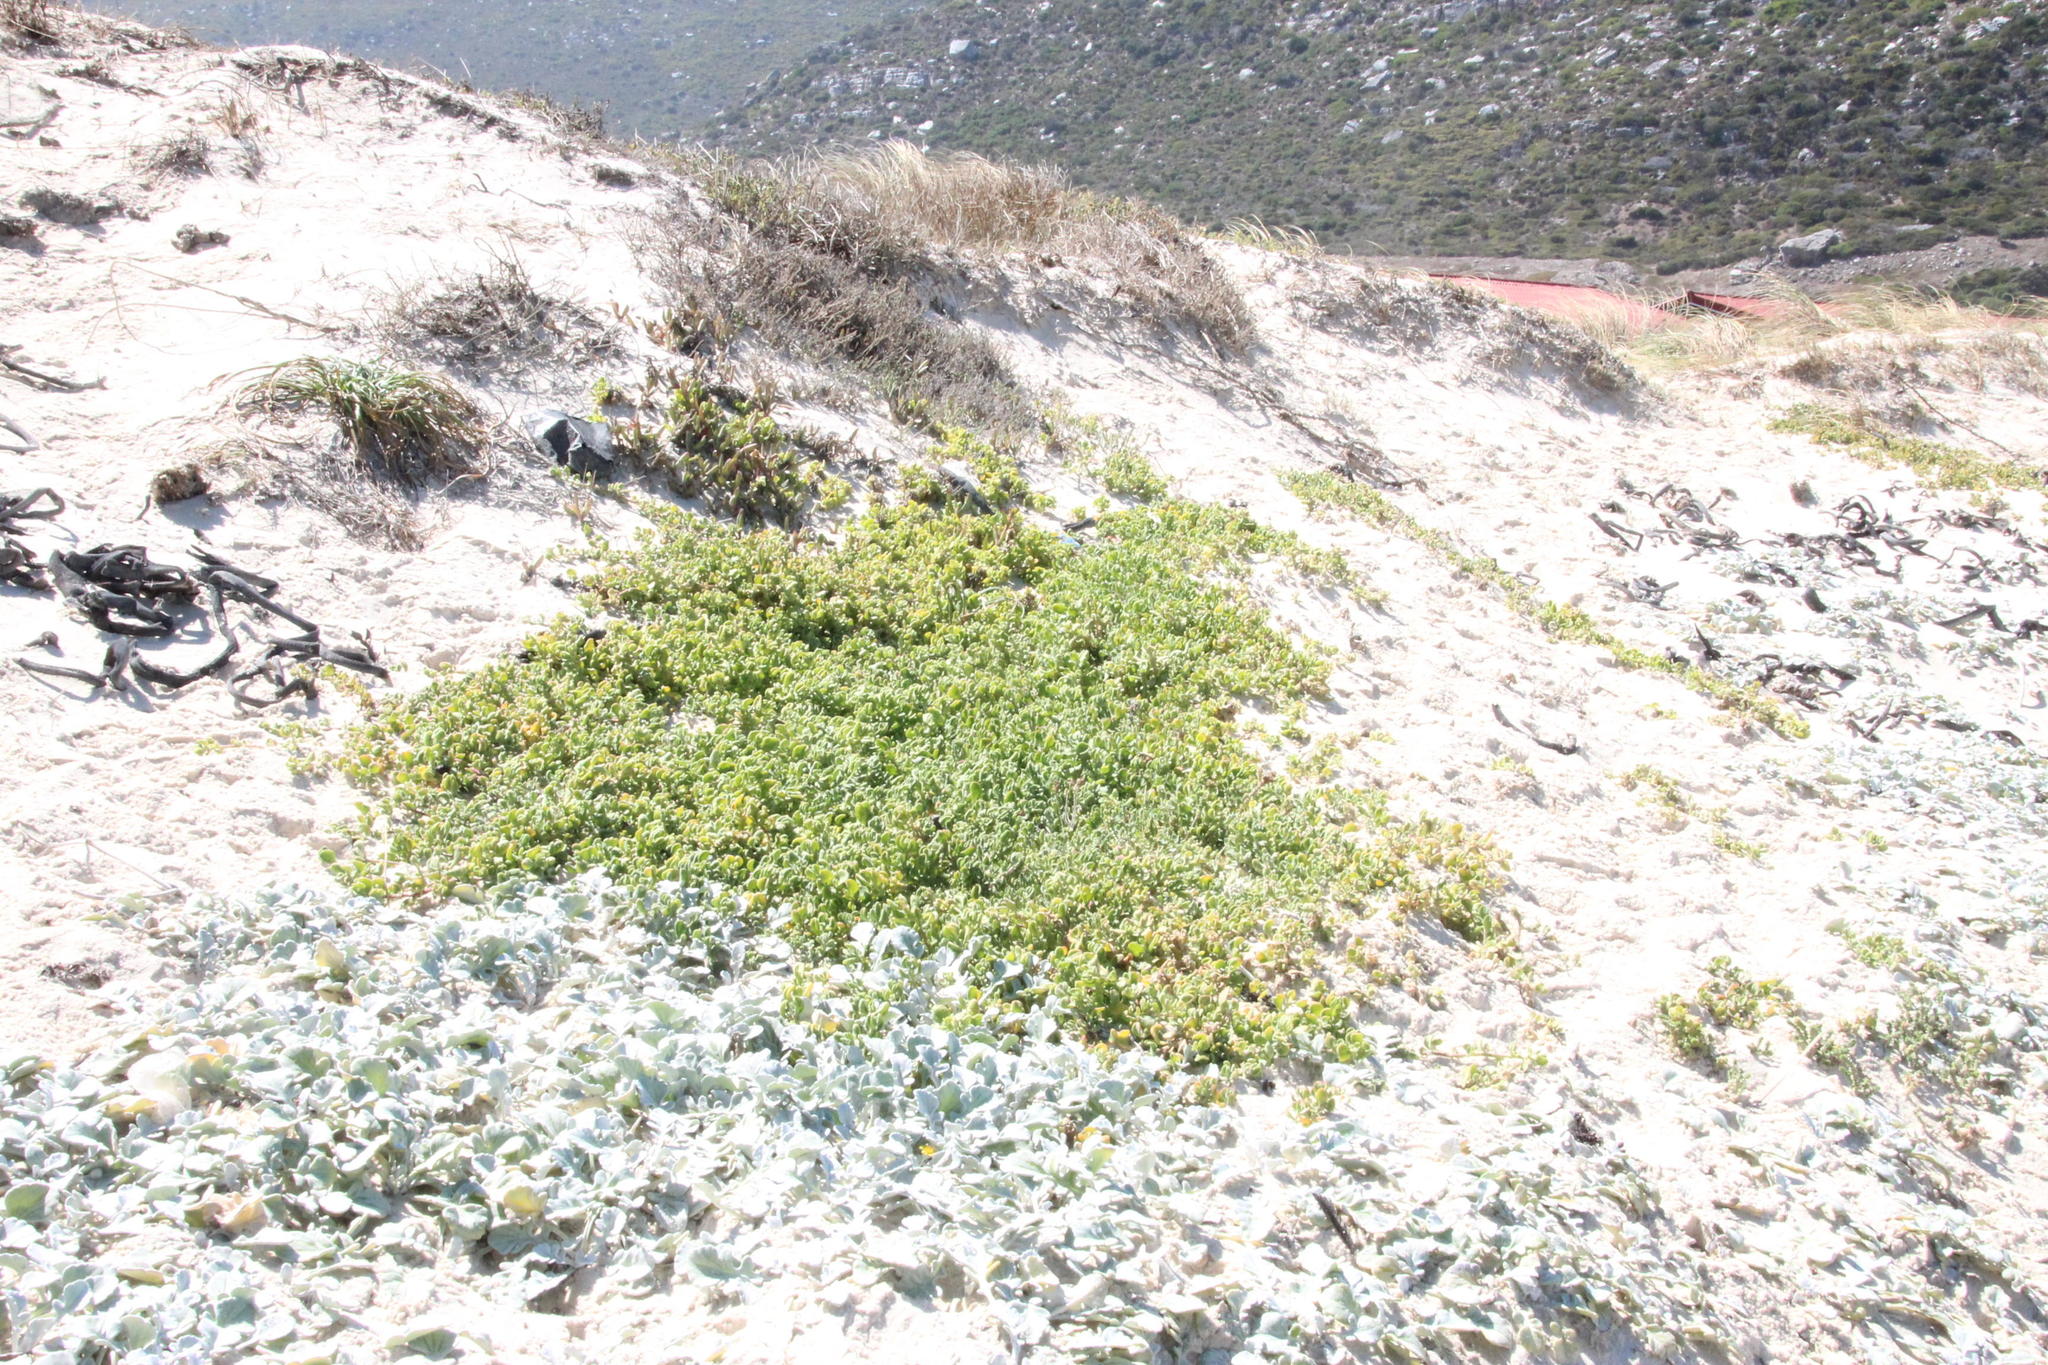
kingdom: Plantae
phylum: Tracheophyta
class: Magnoliopsida
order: Caryophyllales
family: Aizoaceae
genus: Tetragonia
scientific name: Tetragonia decumbens
